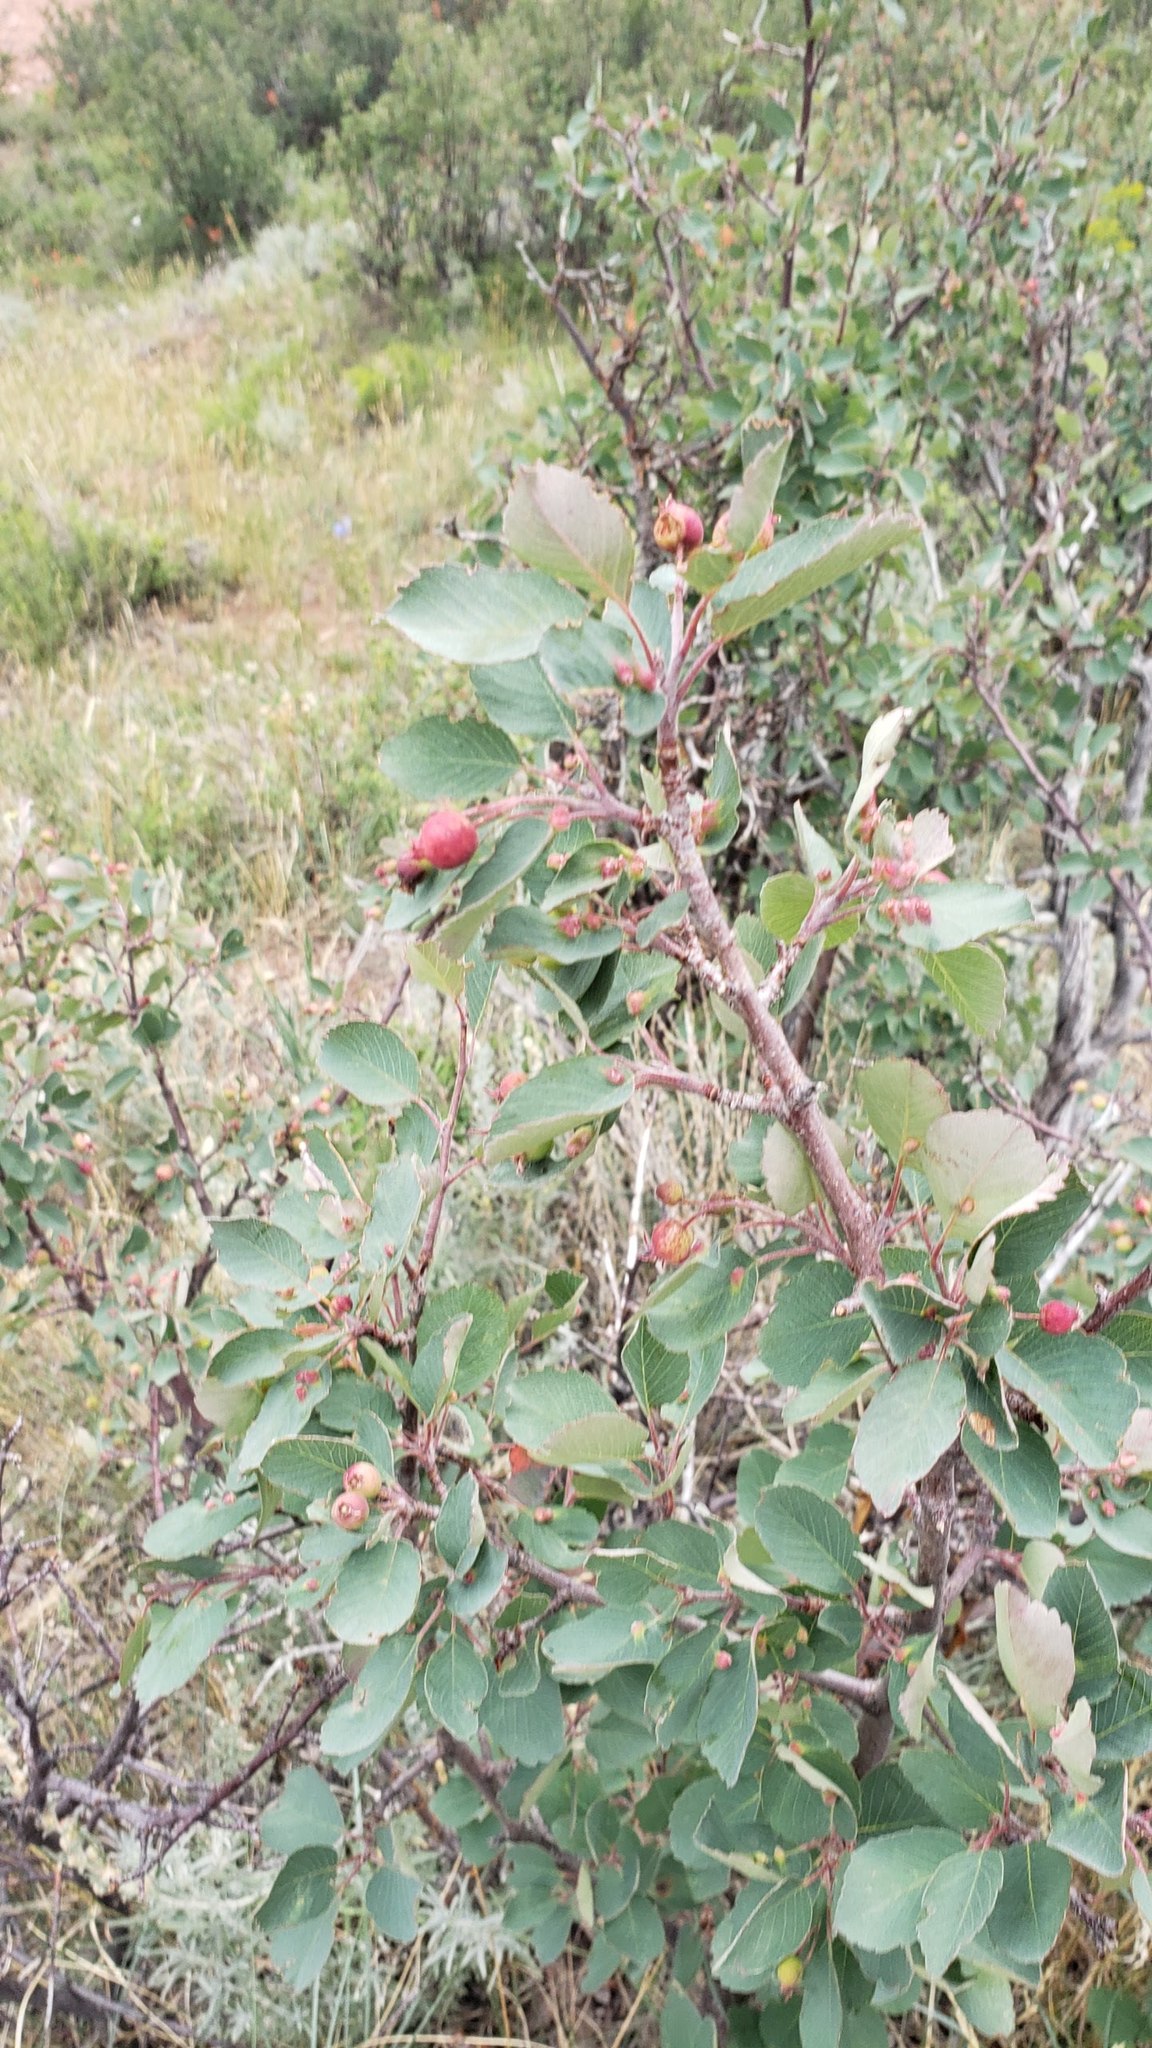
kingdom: Plantae
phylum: Tracheophyta
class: Magnoliopsida
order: Rosales
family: Rosaceae
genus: Amelanchier
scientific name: Amelanchier alnifolia
